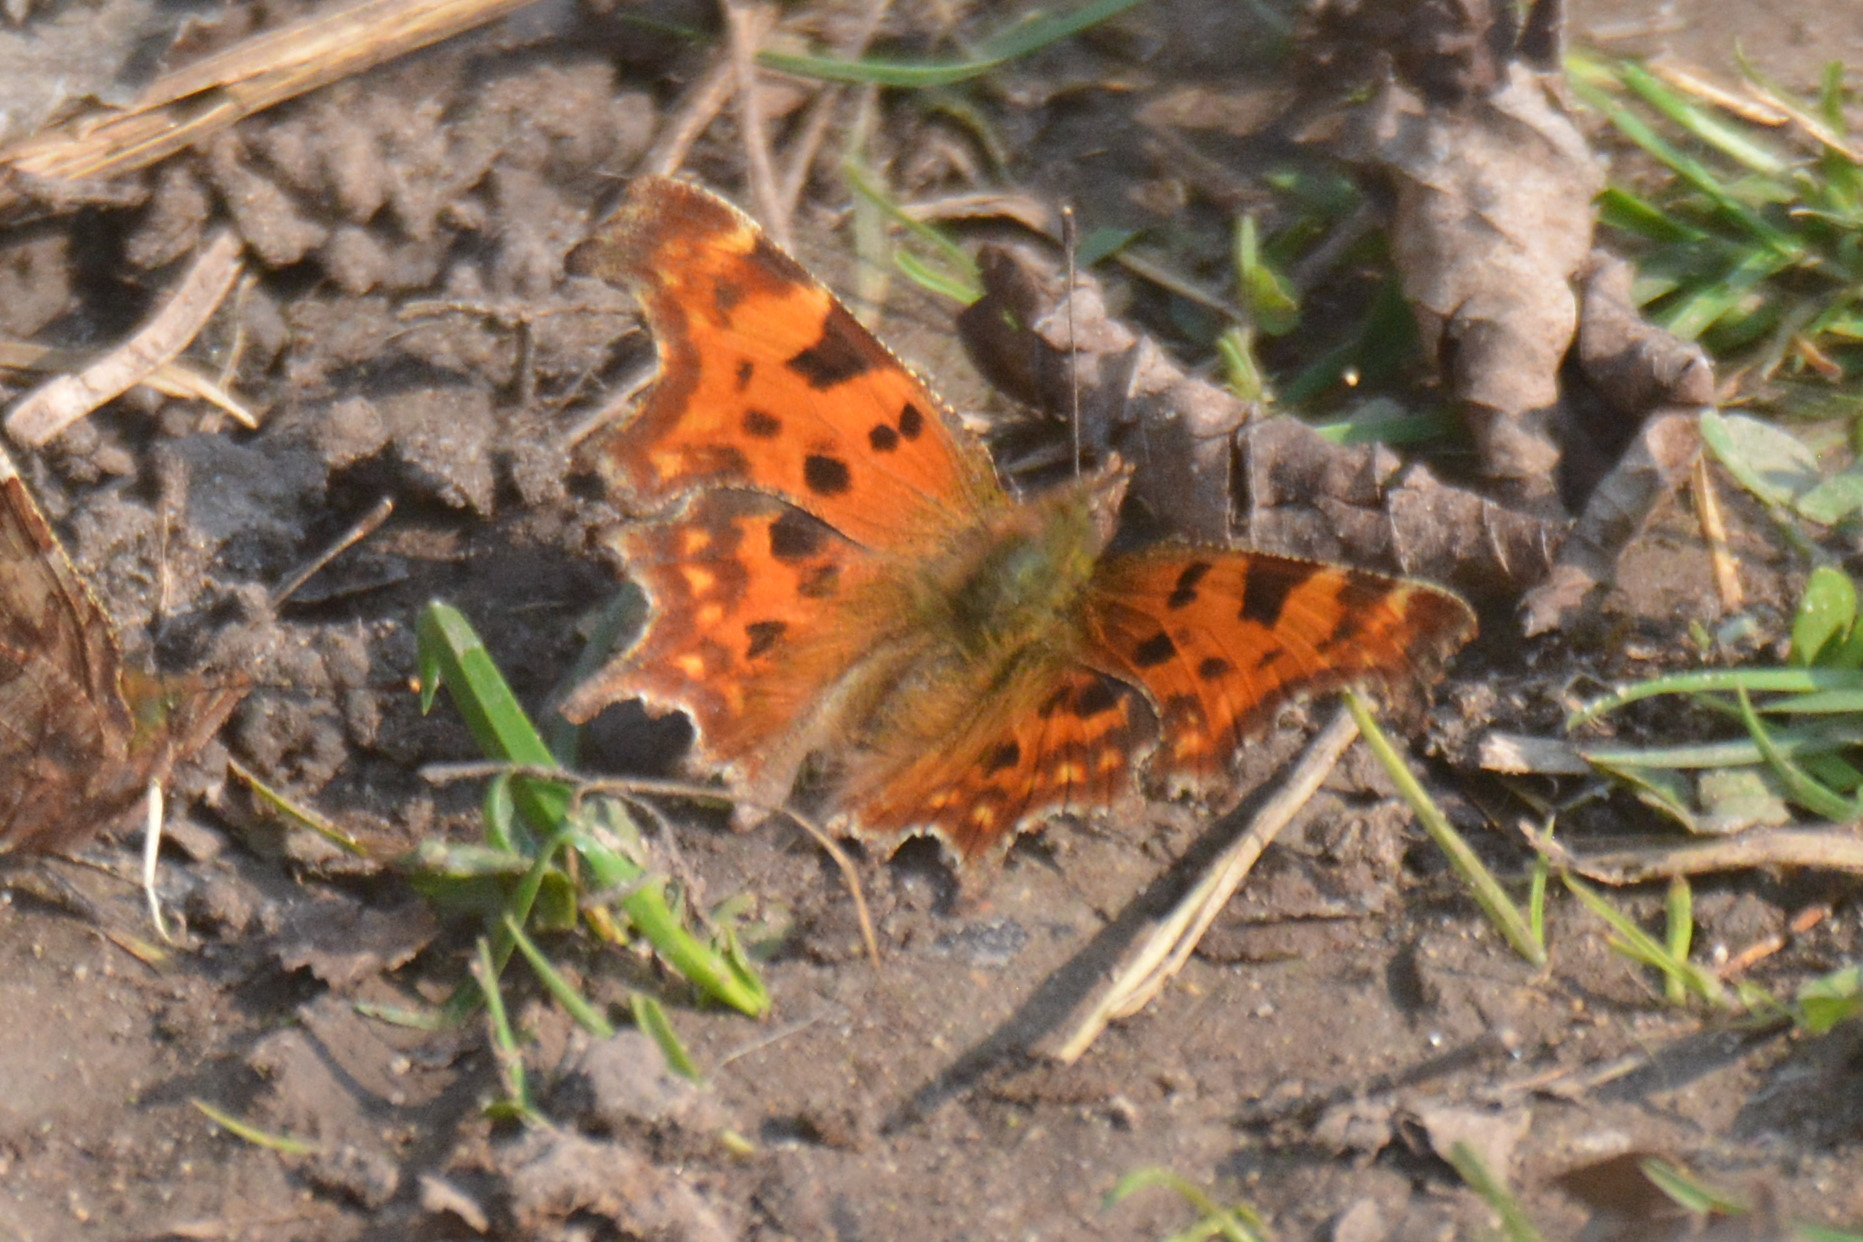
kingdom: Animalia
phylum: Arthropoda
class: Insecta
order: Lepidoptera
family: Nymphalidae
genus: Polygonia
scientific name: Polygonia c-album
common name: Comma
